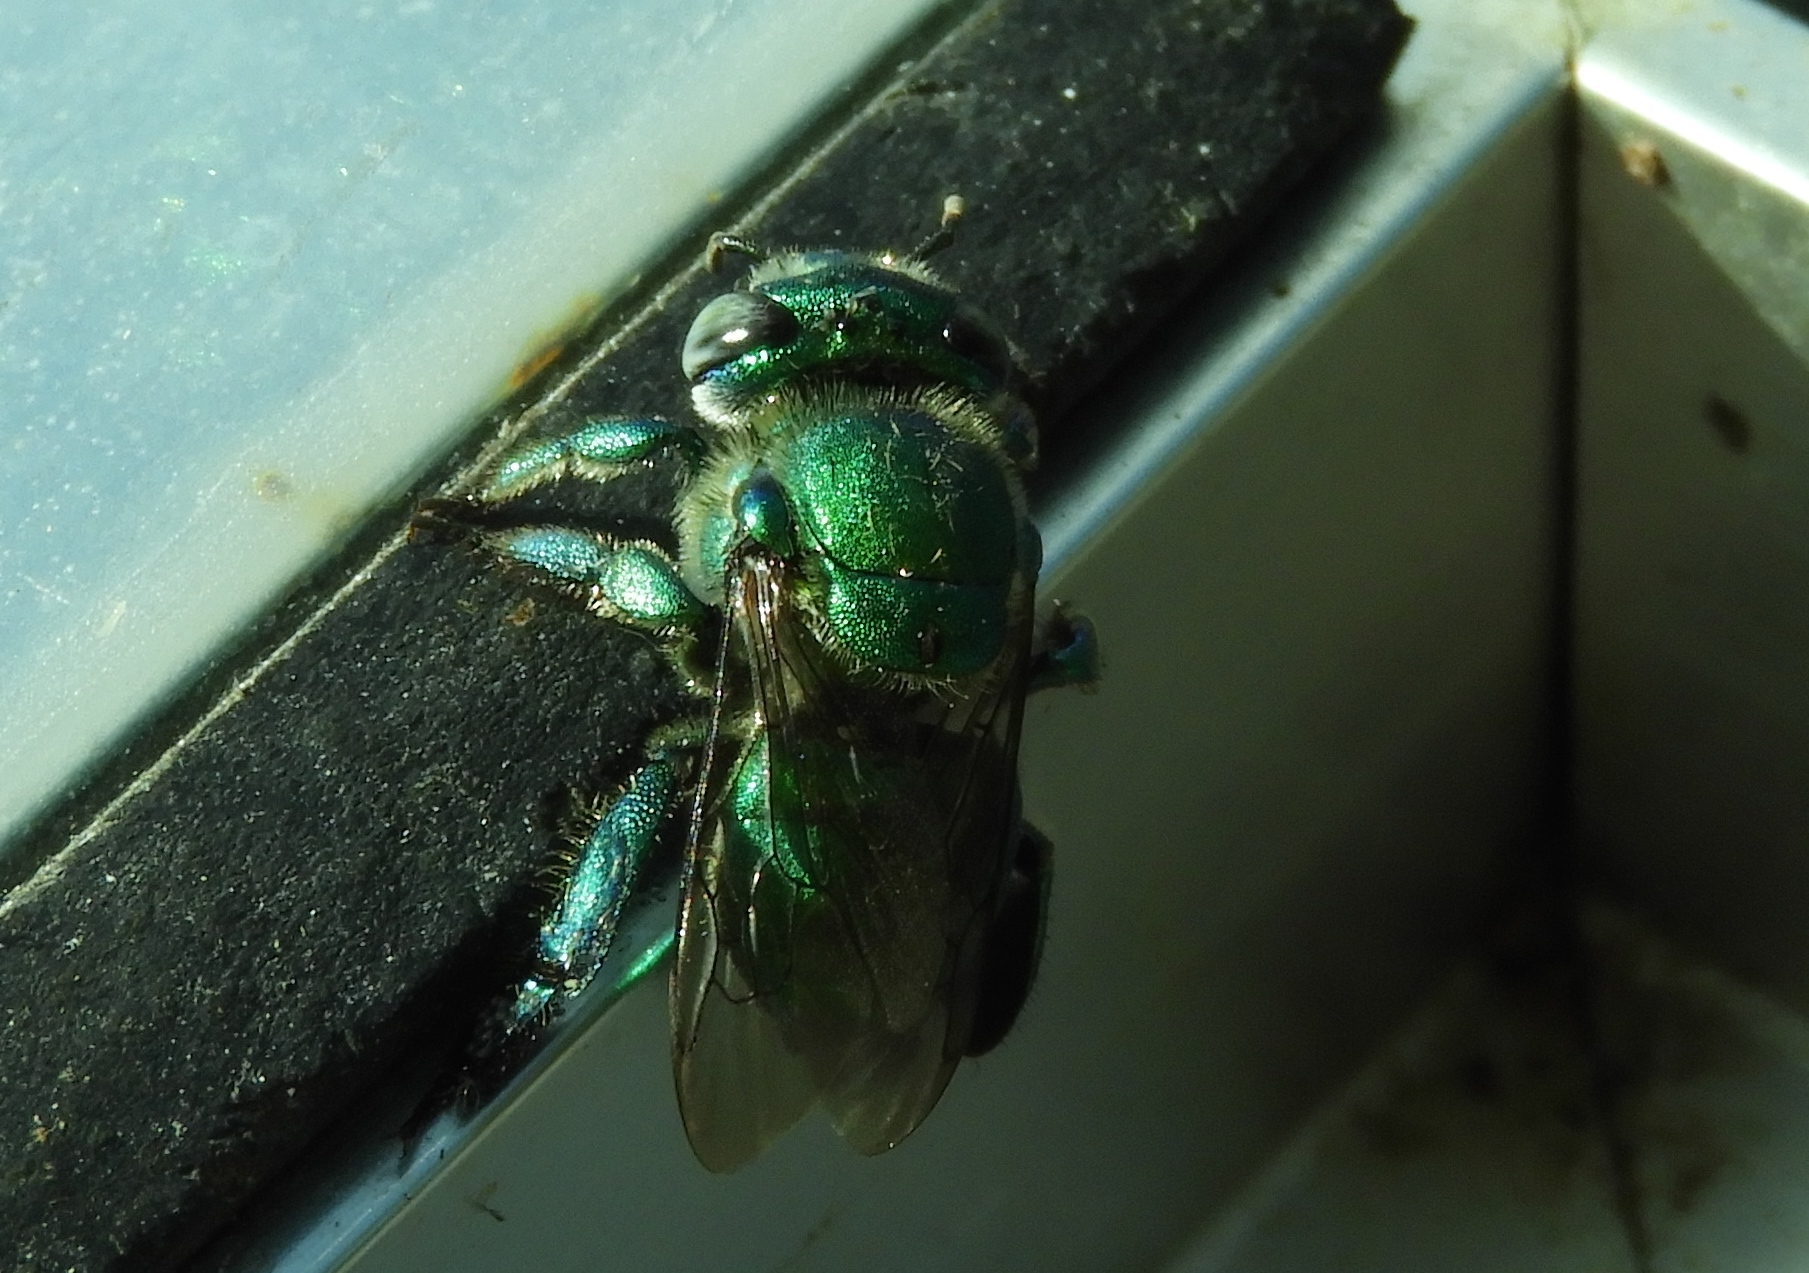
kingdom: Animalia
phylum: Arthropoda
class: Insecta
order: Hymenoptera
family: Apidae
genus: Euglossa
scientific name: Euglossa
